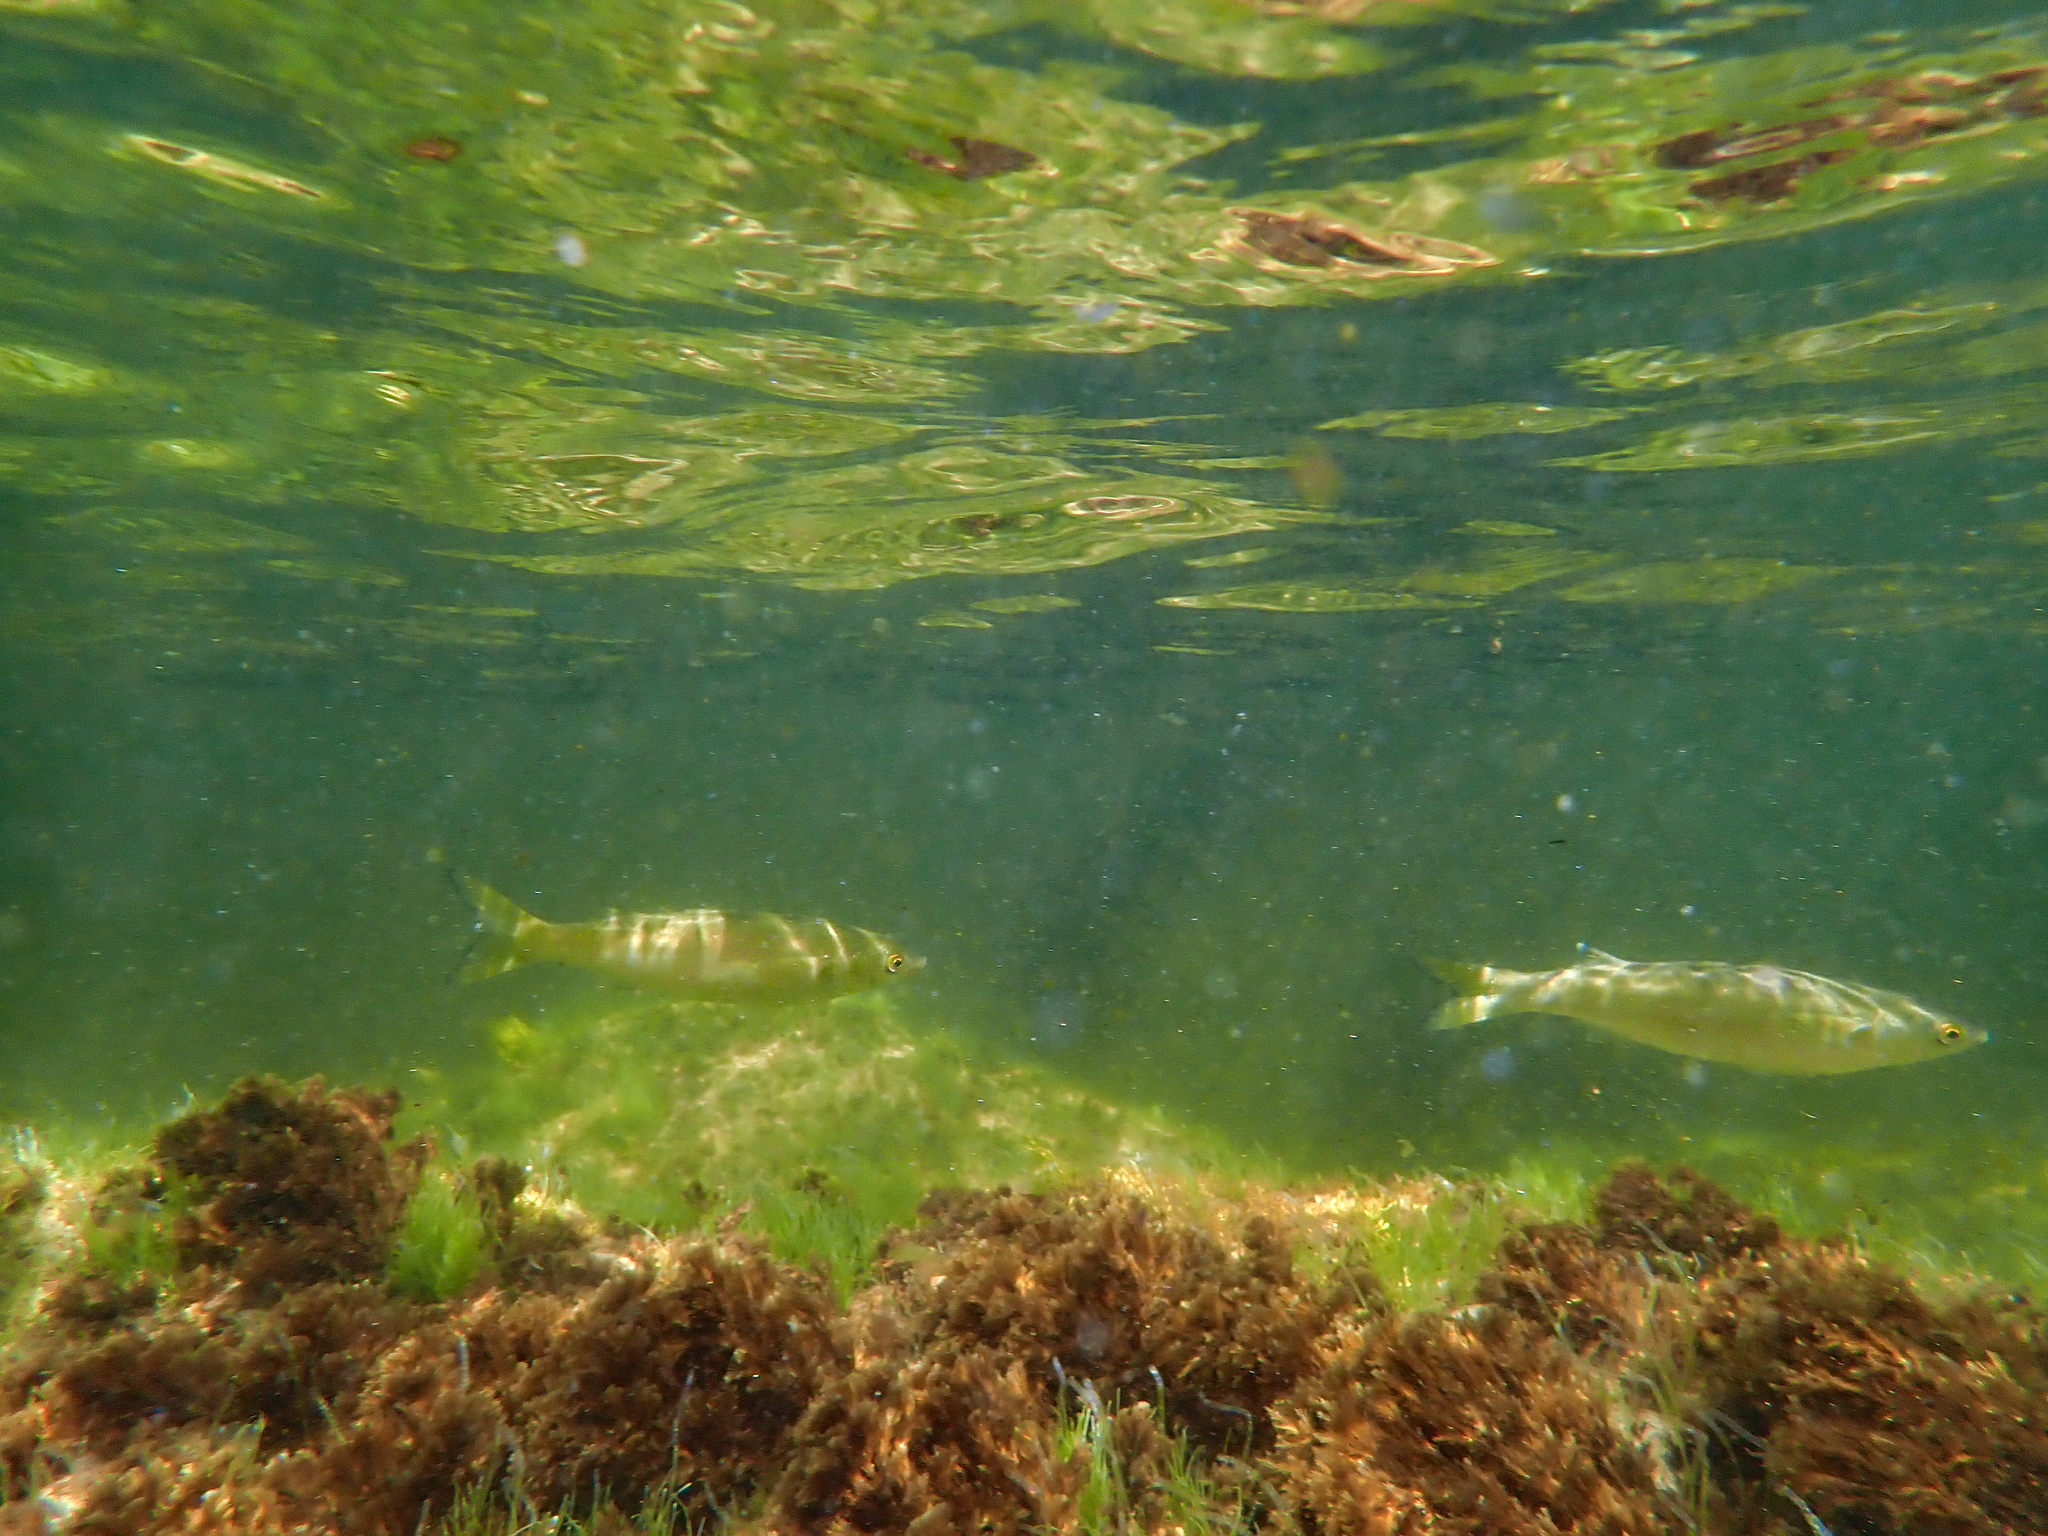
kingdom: Animalia
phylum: Chordata
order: Mugiliformes
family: Mugilidae
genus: Aldrichetta
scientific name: Aldrichetta forsteri
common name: Yellow-eye mullet
